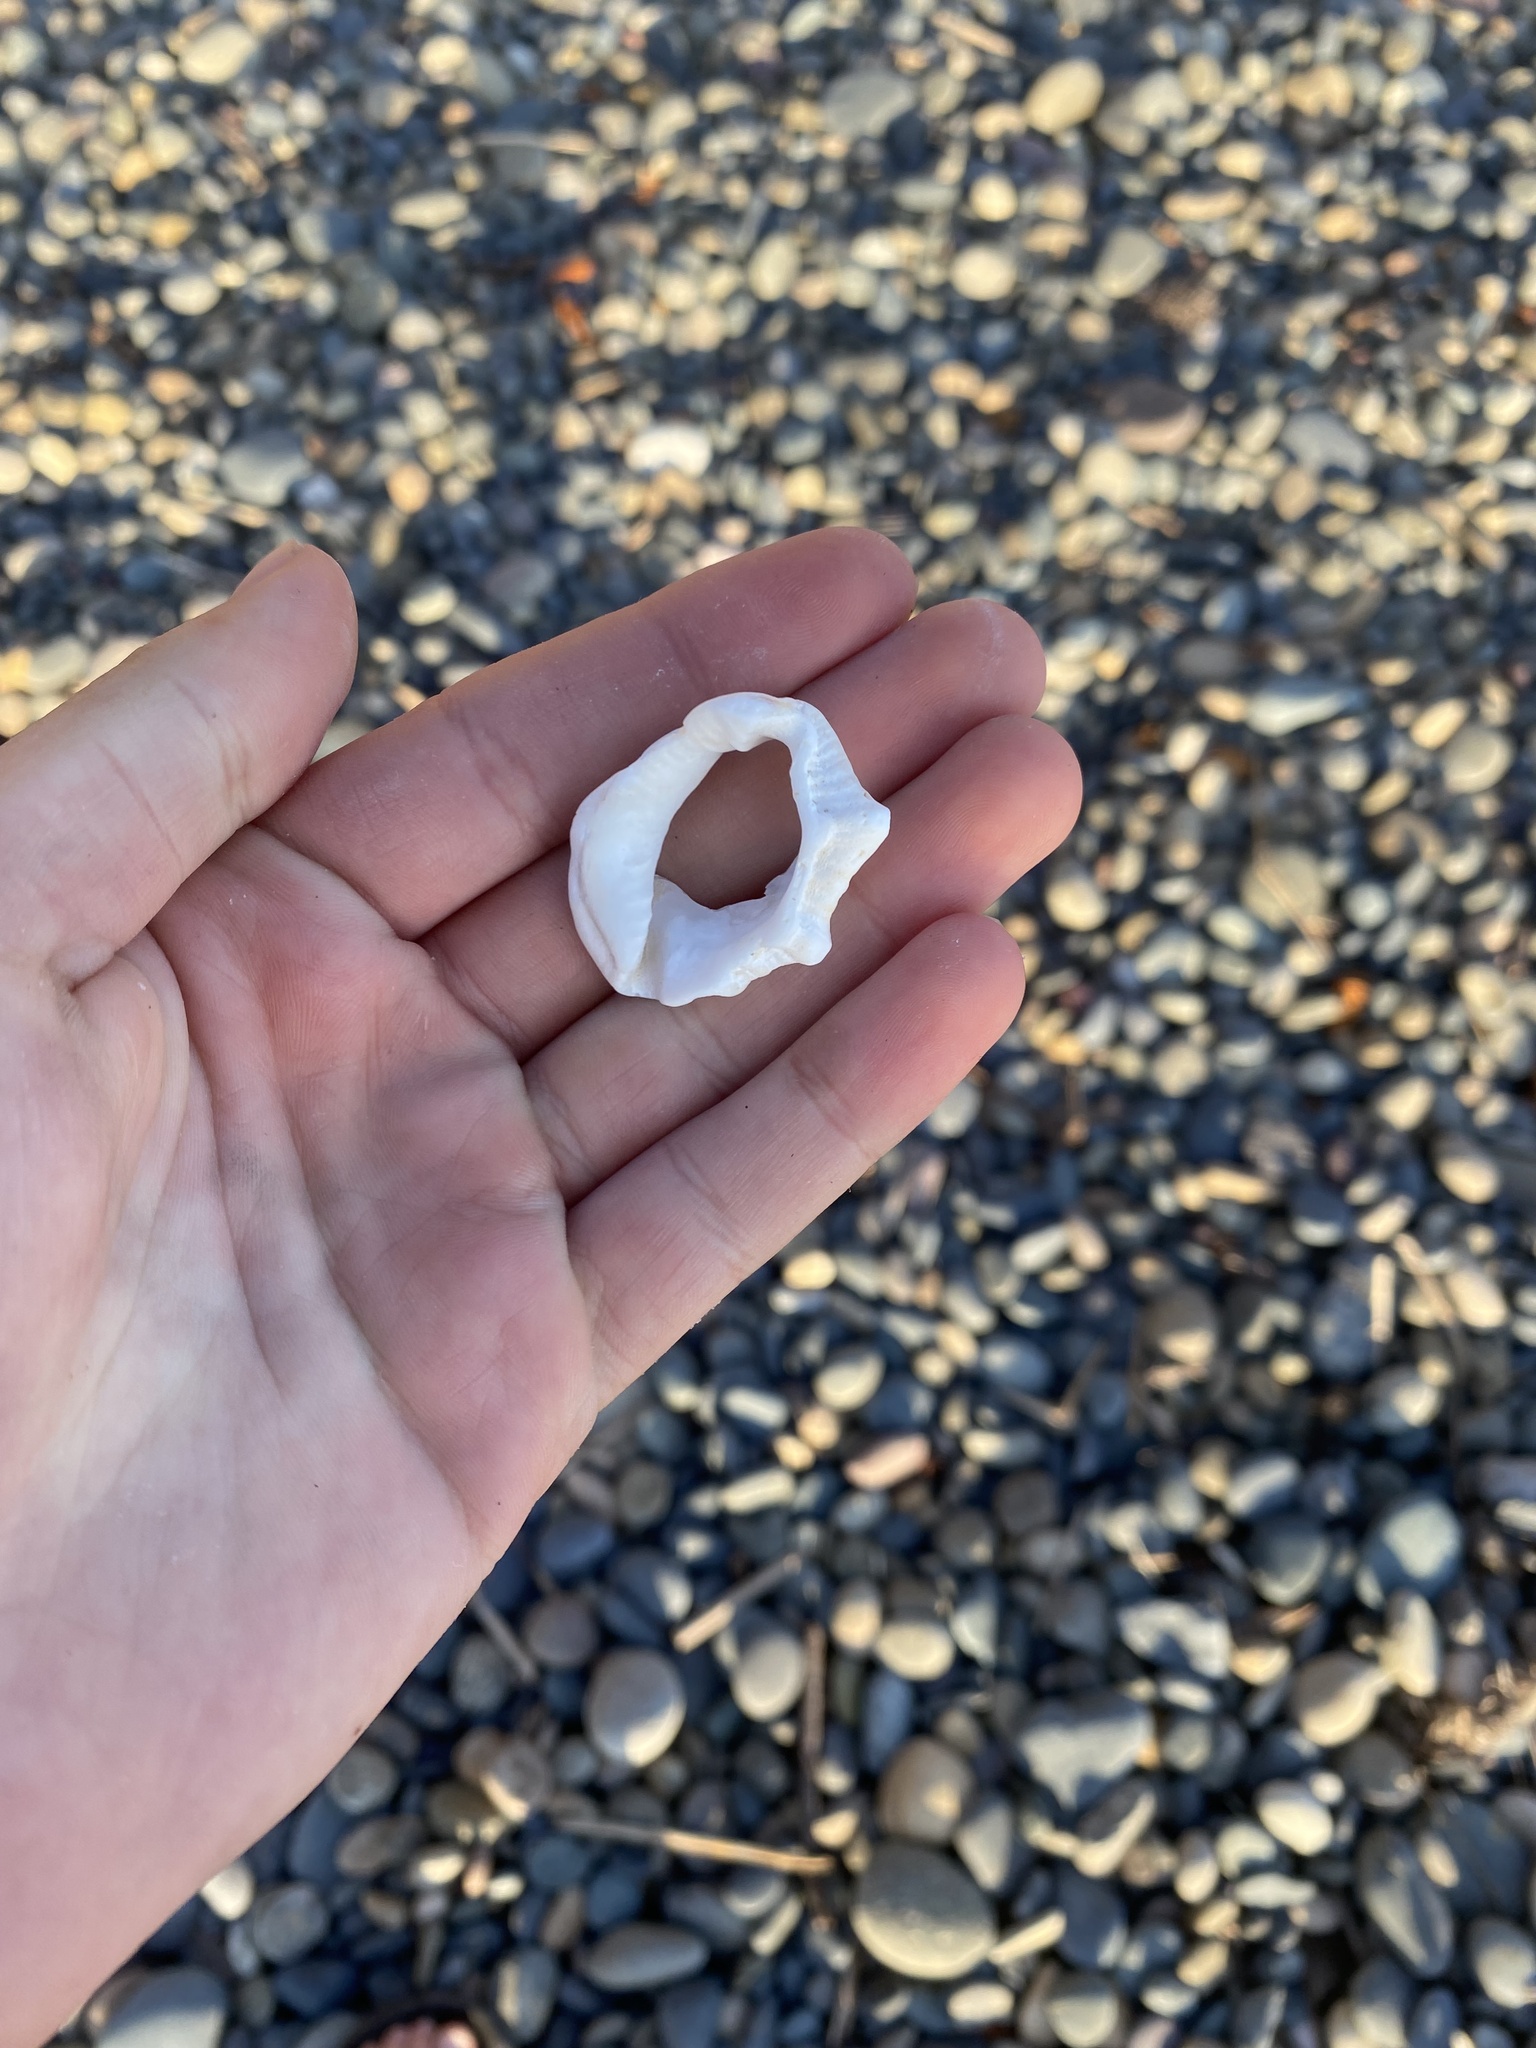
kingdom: Animalia
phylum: Mollusca
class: Gastropoda
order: Littorinimorpha
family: Bursidae
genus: Crossata
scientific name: Crossata californica
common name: California frogsnail
